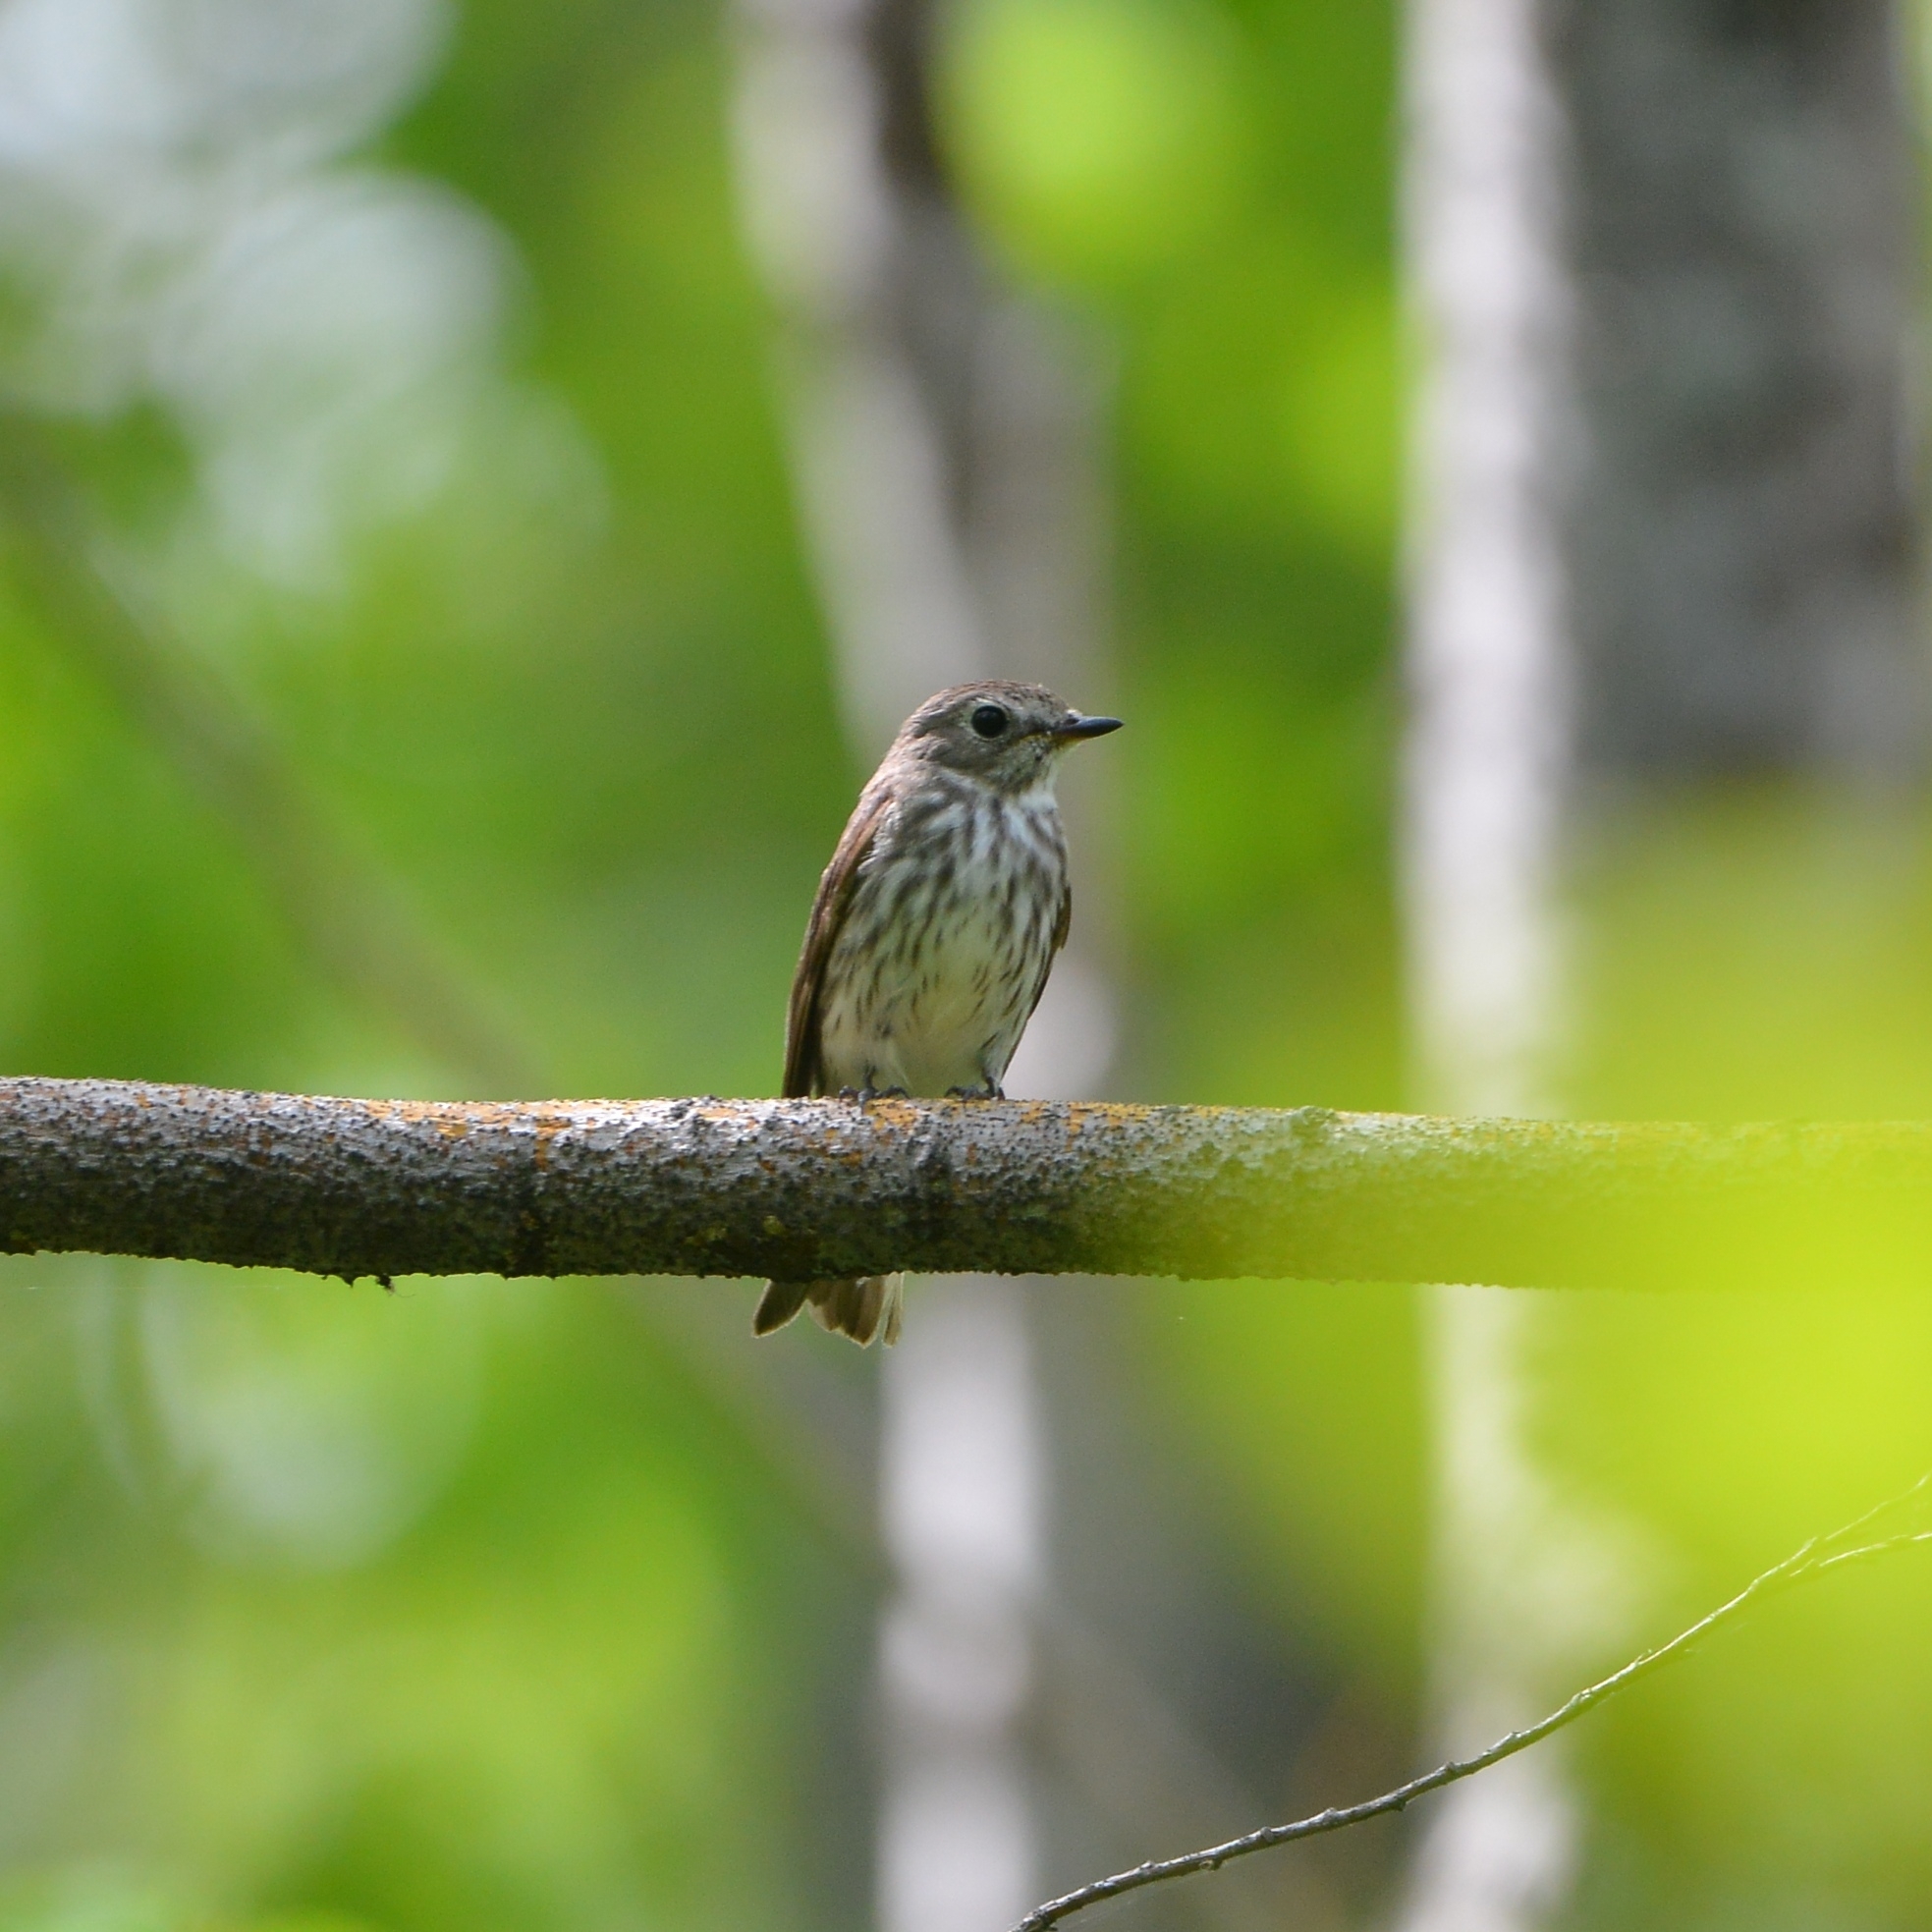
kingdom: Animalia
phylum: Chordata
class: Aves
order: Passeriformes
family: Muscicapidae
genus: Muscicapa
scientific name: Muscicapa griseisticta
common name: Gray-streaked flycatcher
